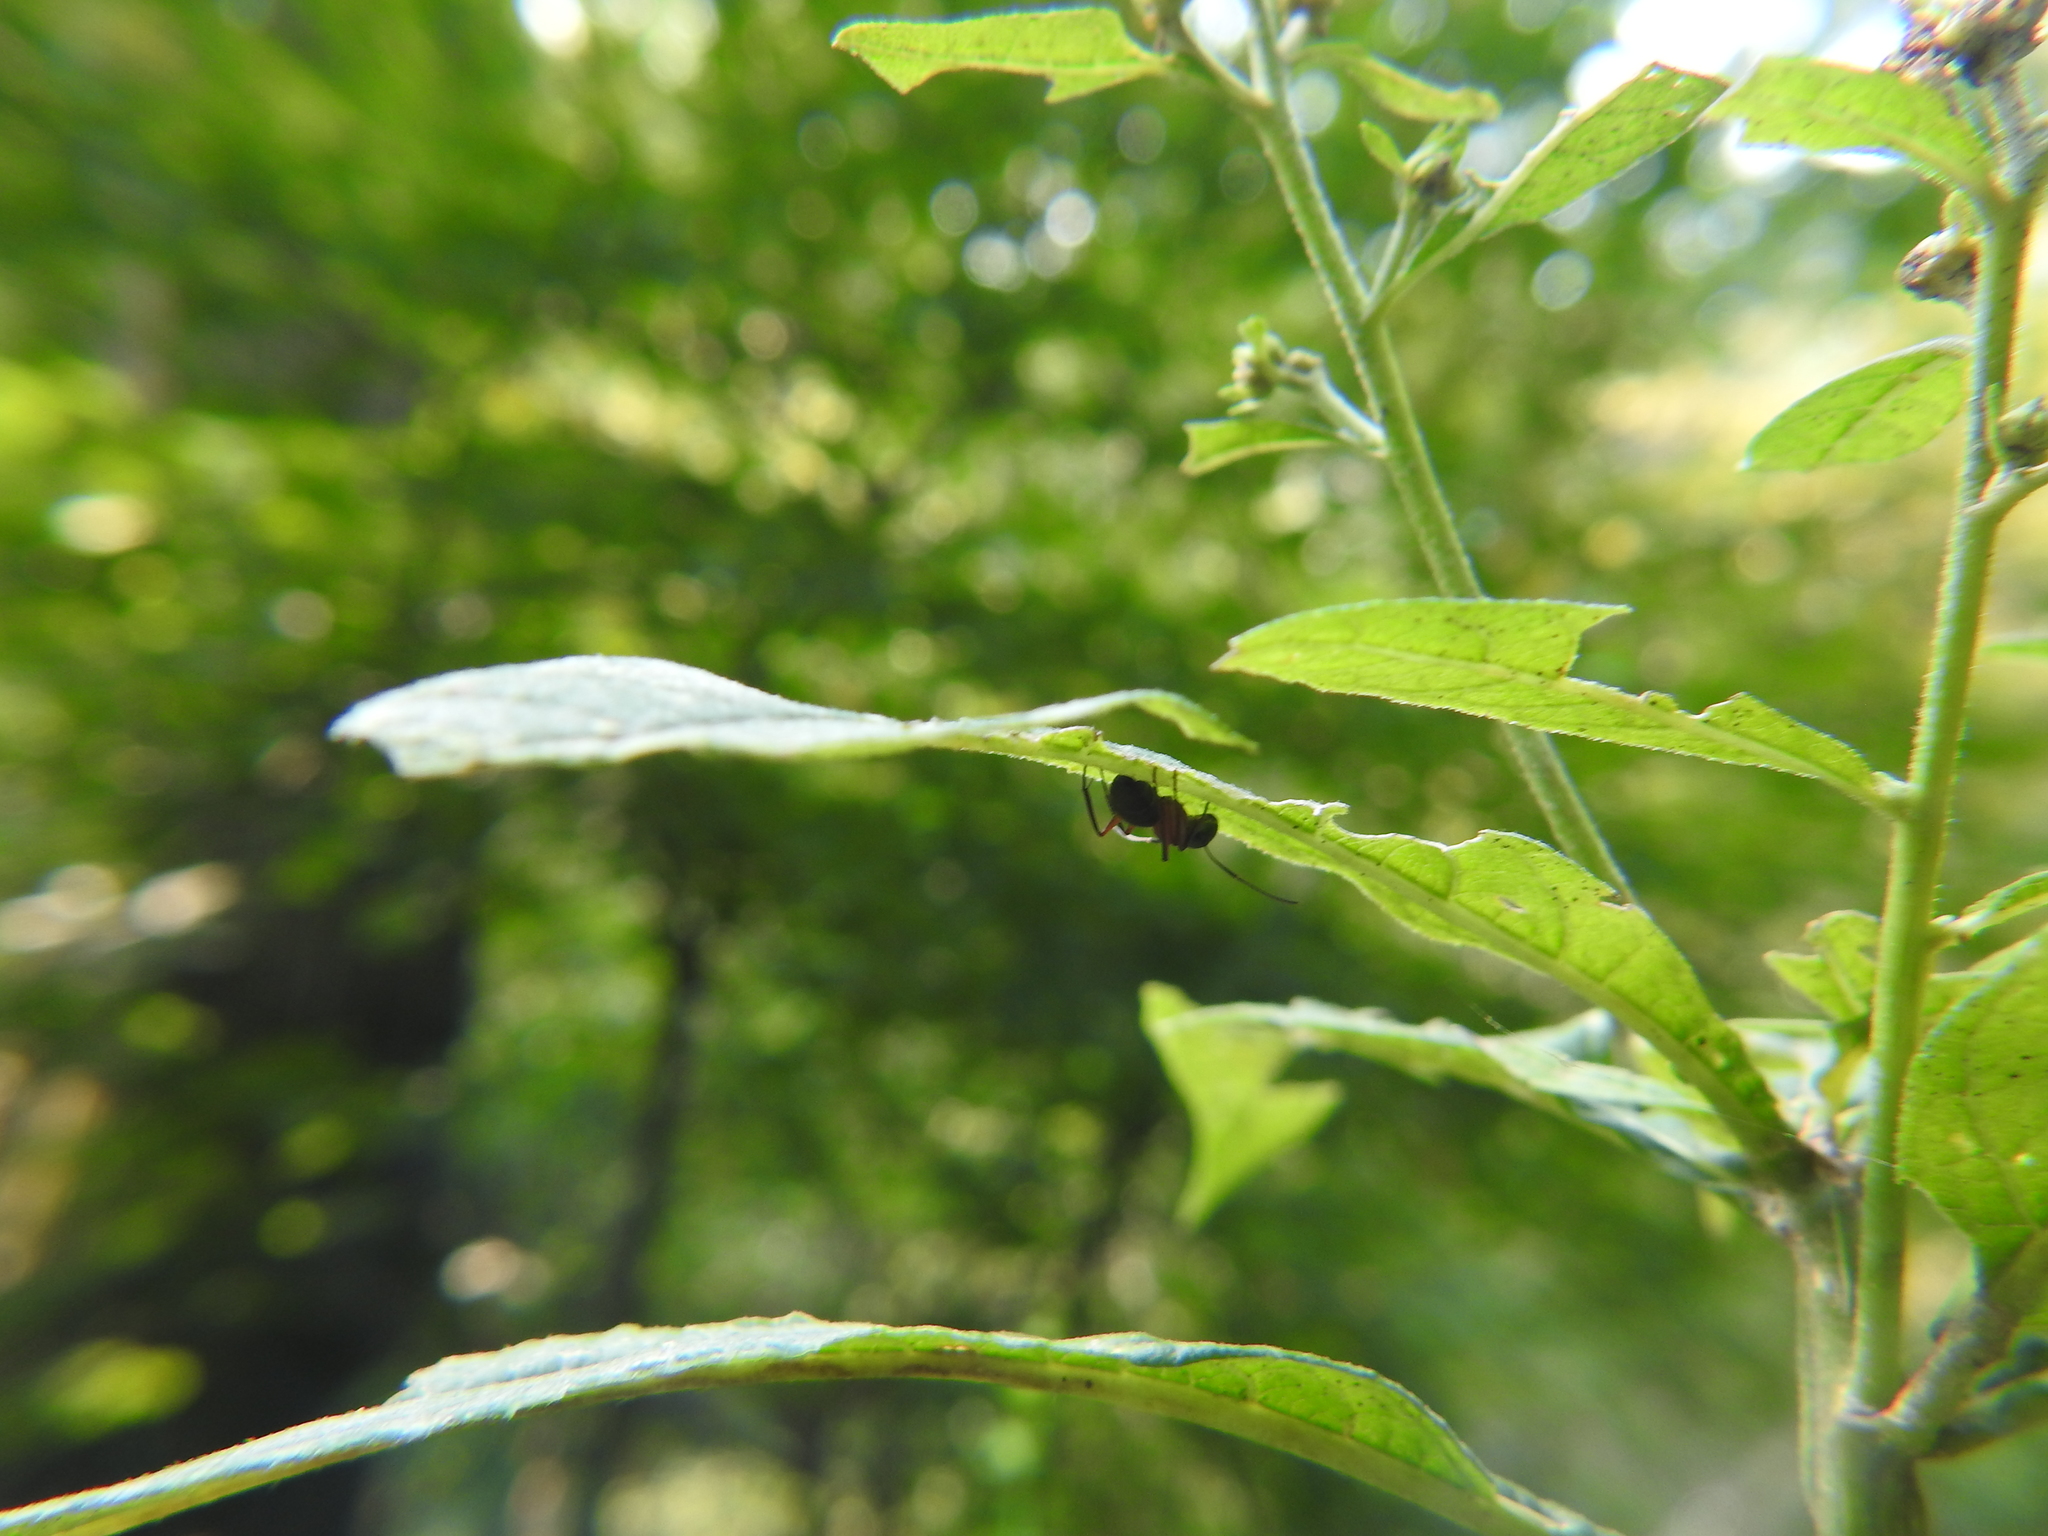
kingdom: Animalia
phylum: Arthropoda
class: Insecta
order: Hymenoptera
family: Formicidae
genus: Camponotus
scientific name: Camponotus chromaiodes
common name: Red carpenter ant
